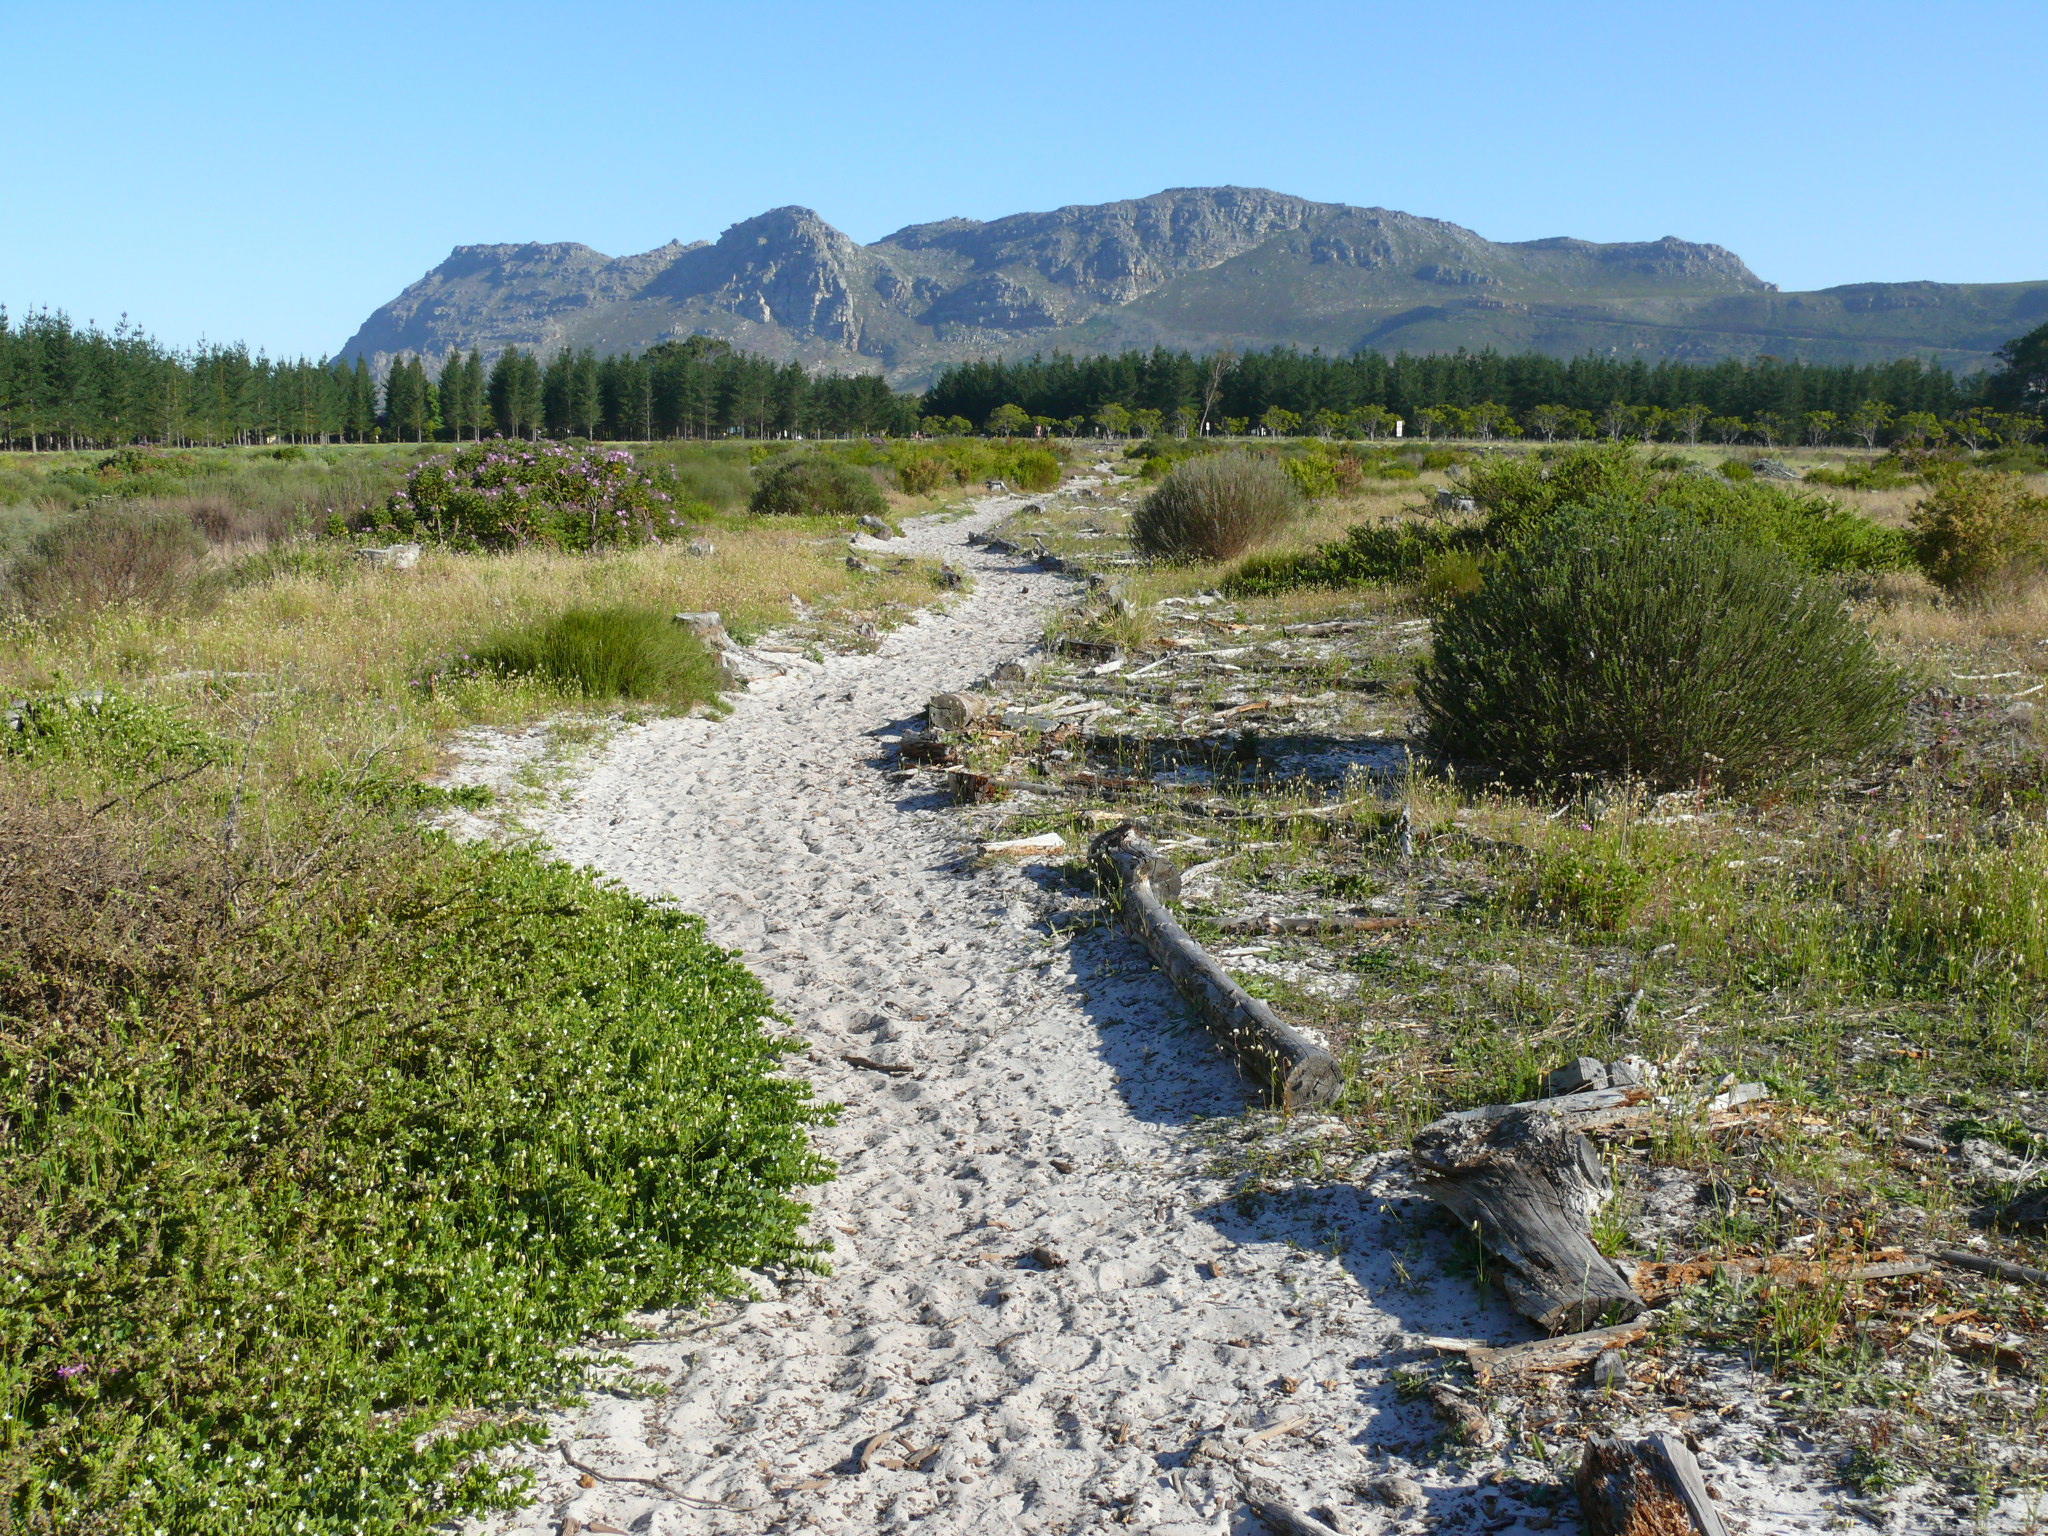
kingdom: Plantae
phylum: Tracheophyta
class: Magnoliopsida
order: Lamiales
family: Scrophulariaceae
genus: Oftia
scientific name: Oftia africana
